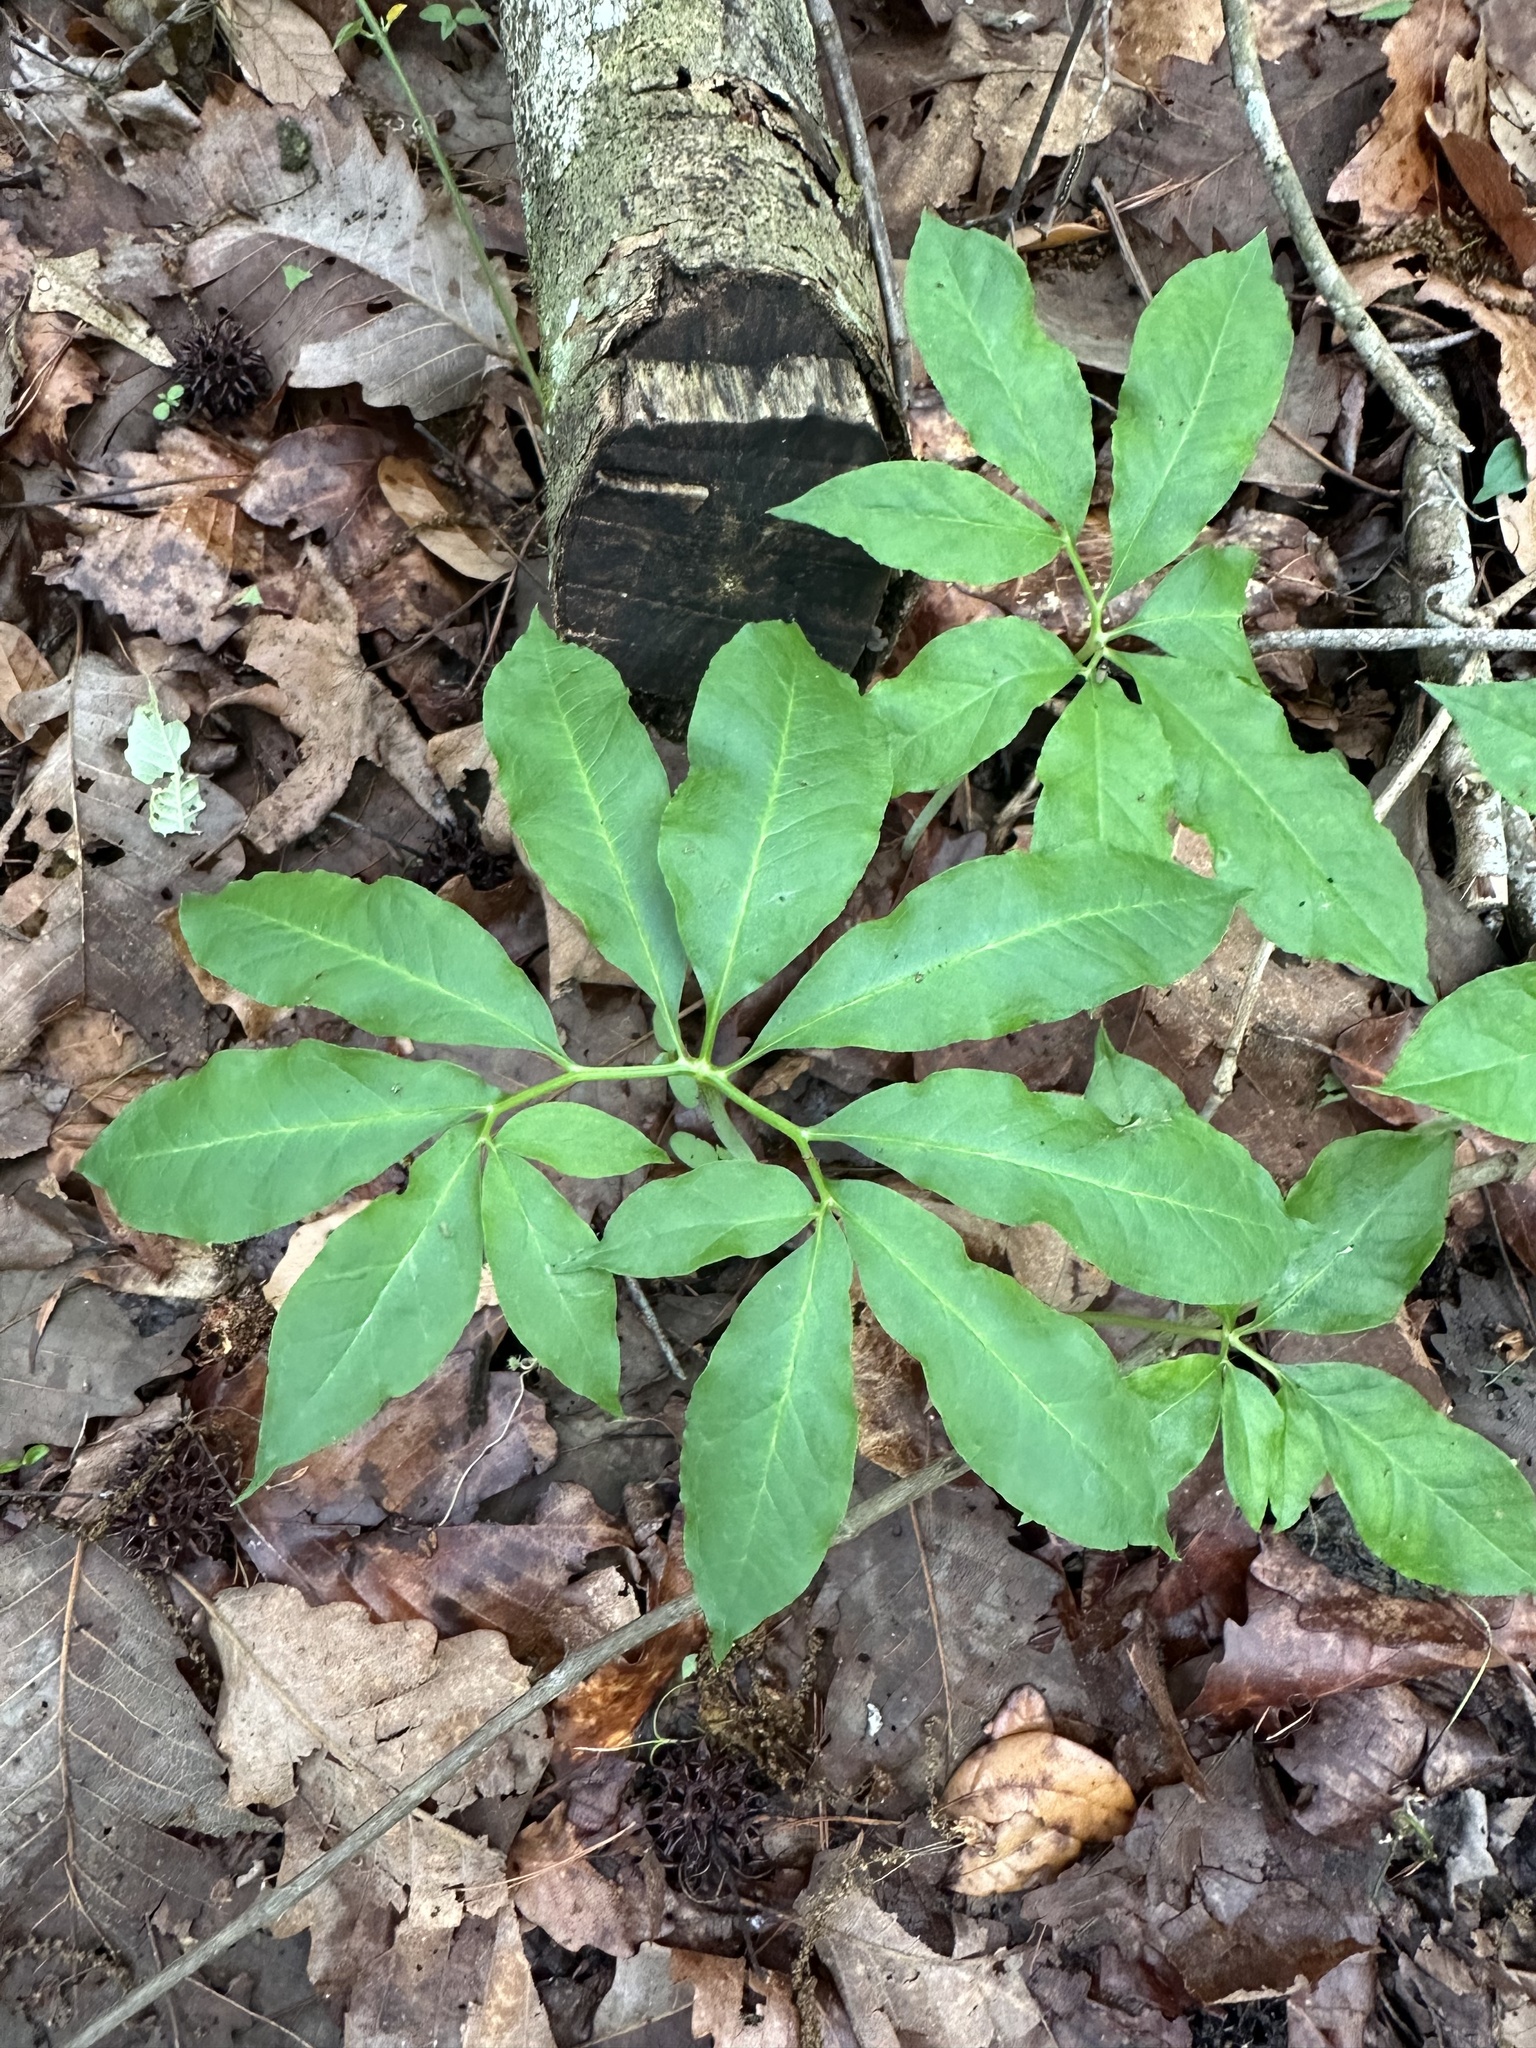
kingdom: Plantae
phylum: Tracheophyta
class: Liliopsida
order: Alismatales
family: Araceae
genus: Arisaema
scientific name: Arisaema dracontium
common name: Dragon-arum
